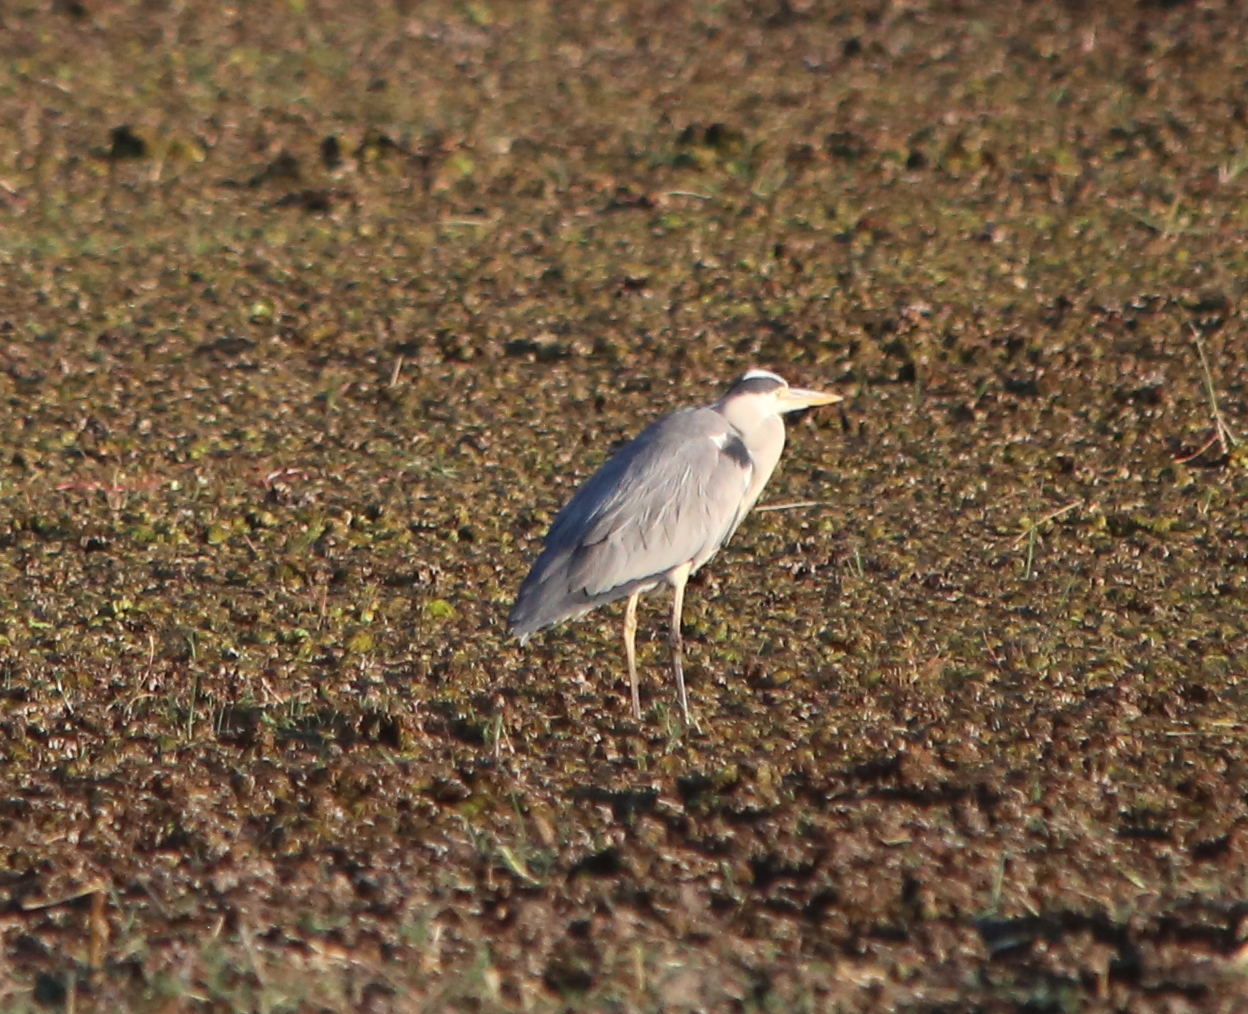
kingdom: Animalia
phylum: Chordata
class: Aves
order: Pelecaniformes
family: Ardeidae
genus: Ardea
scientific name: Ardea cinerea
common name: Grey heron
